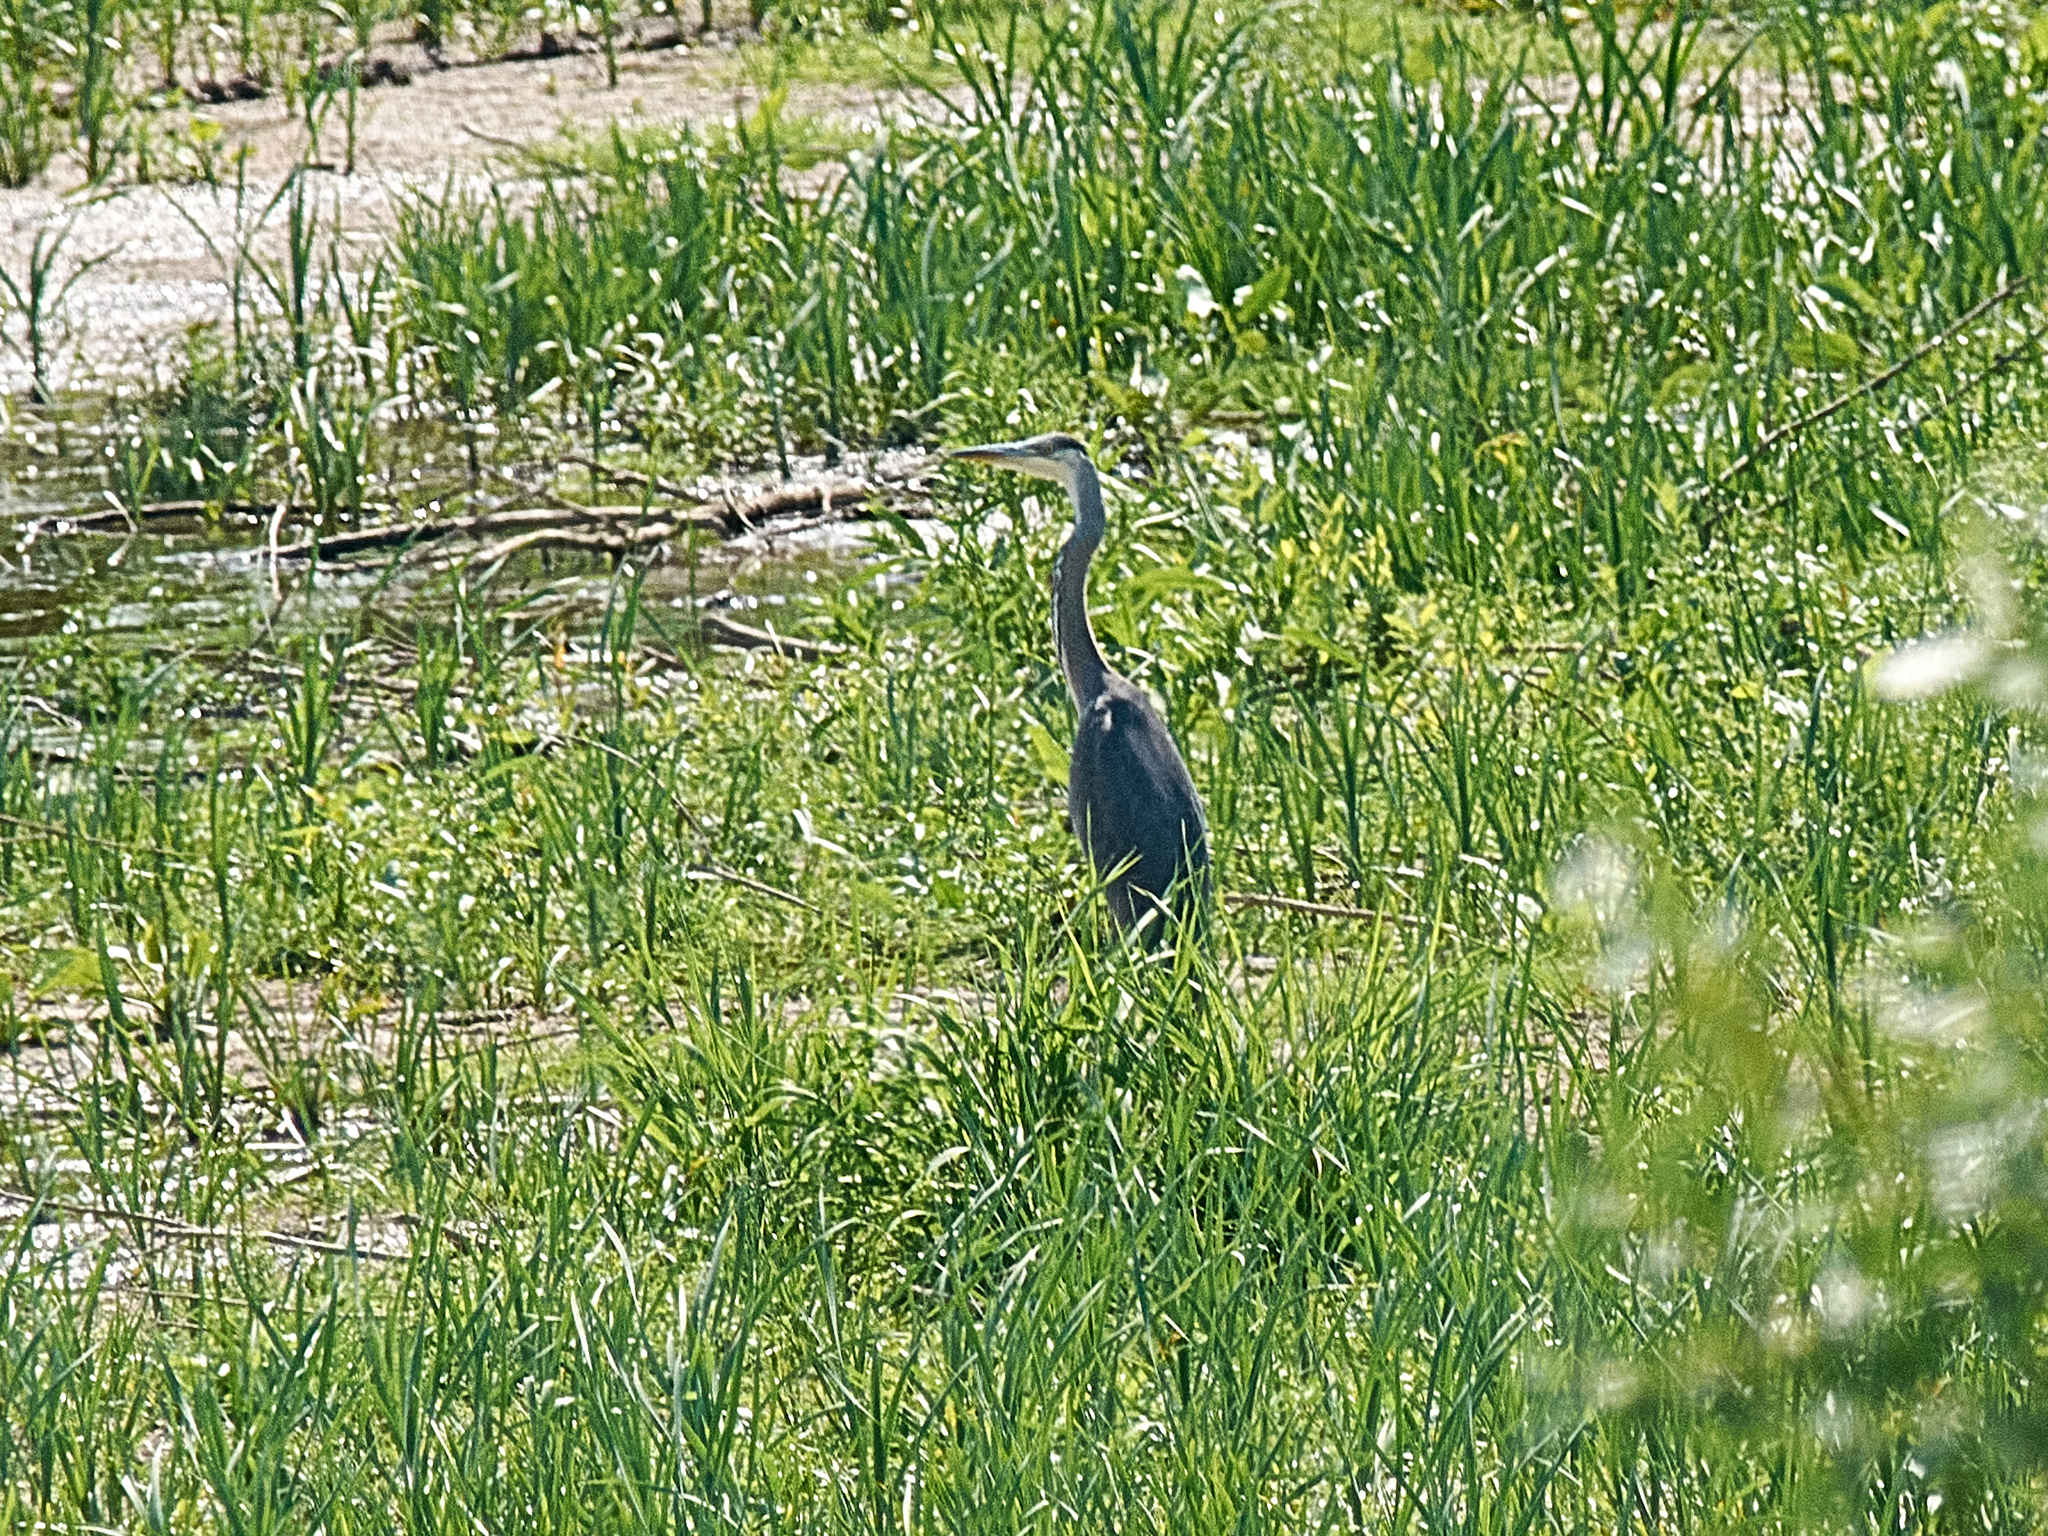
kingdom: Animalia
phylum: Chordata
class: Aves
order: Pelecaniformes
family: Ardeidae
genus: Ardea
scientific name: Ardea cinerea
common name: Grey heron
